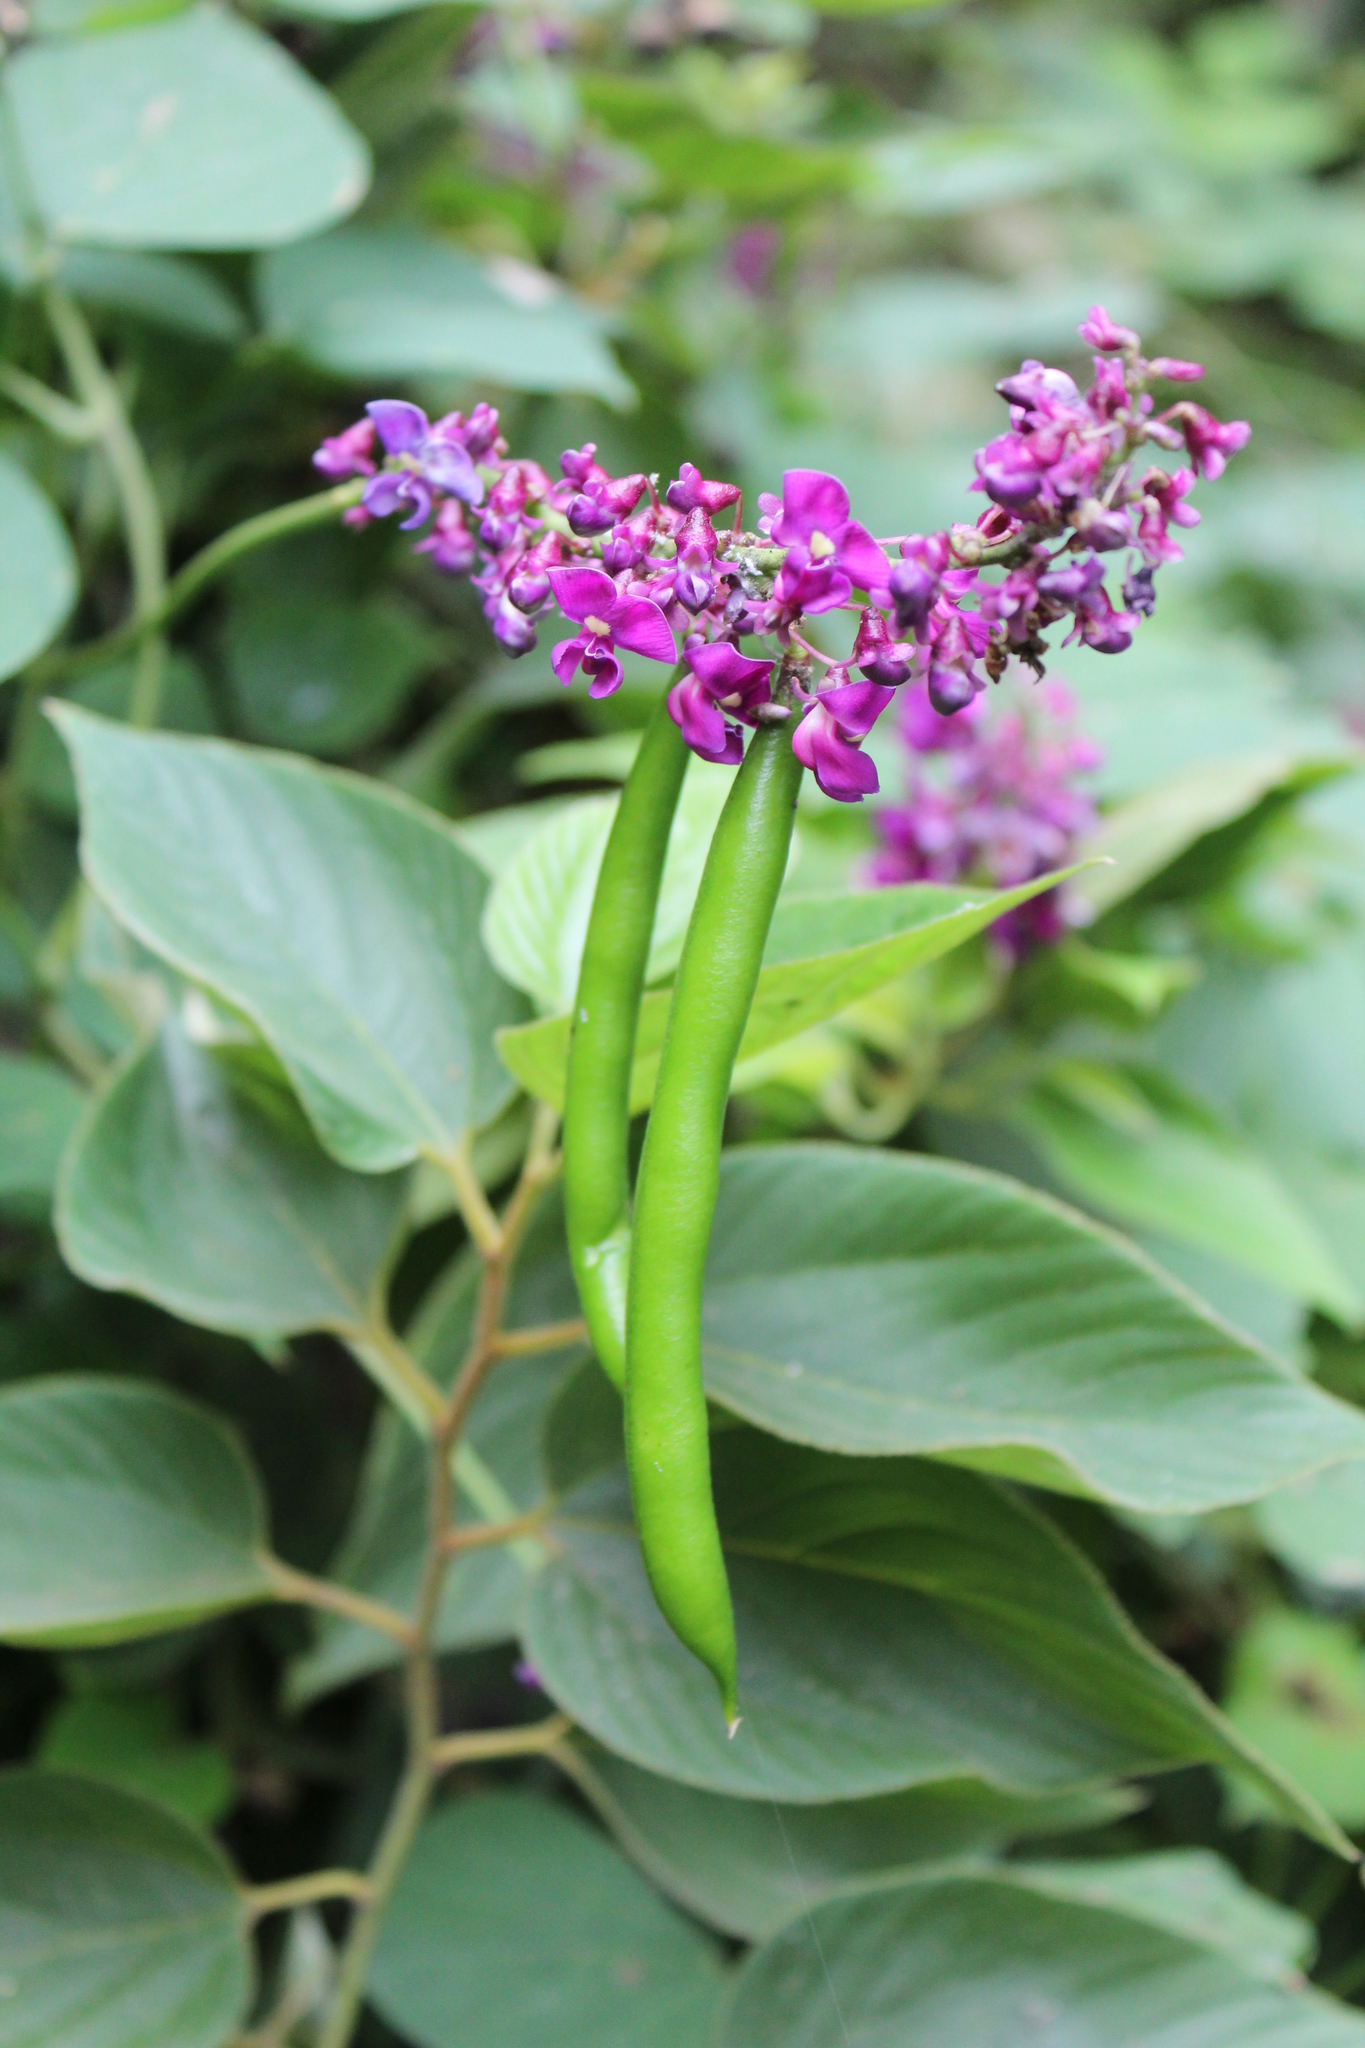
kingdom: Plantae
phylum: Tracheophyta
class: Magnoliopsida
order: Fabales
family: Fabaceae
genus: Oxyrhynchus
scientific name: Oxyrhynchus populneus
